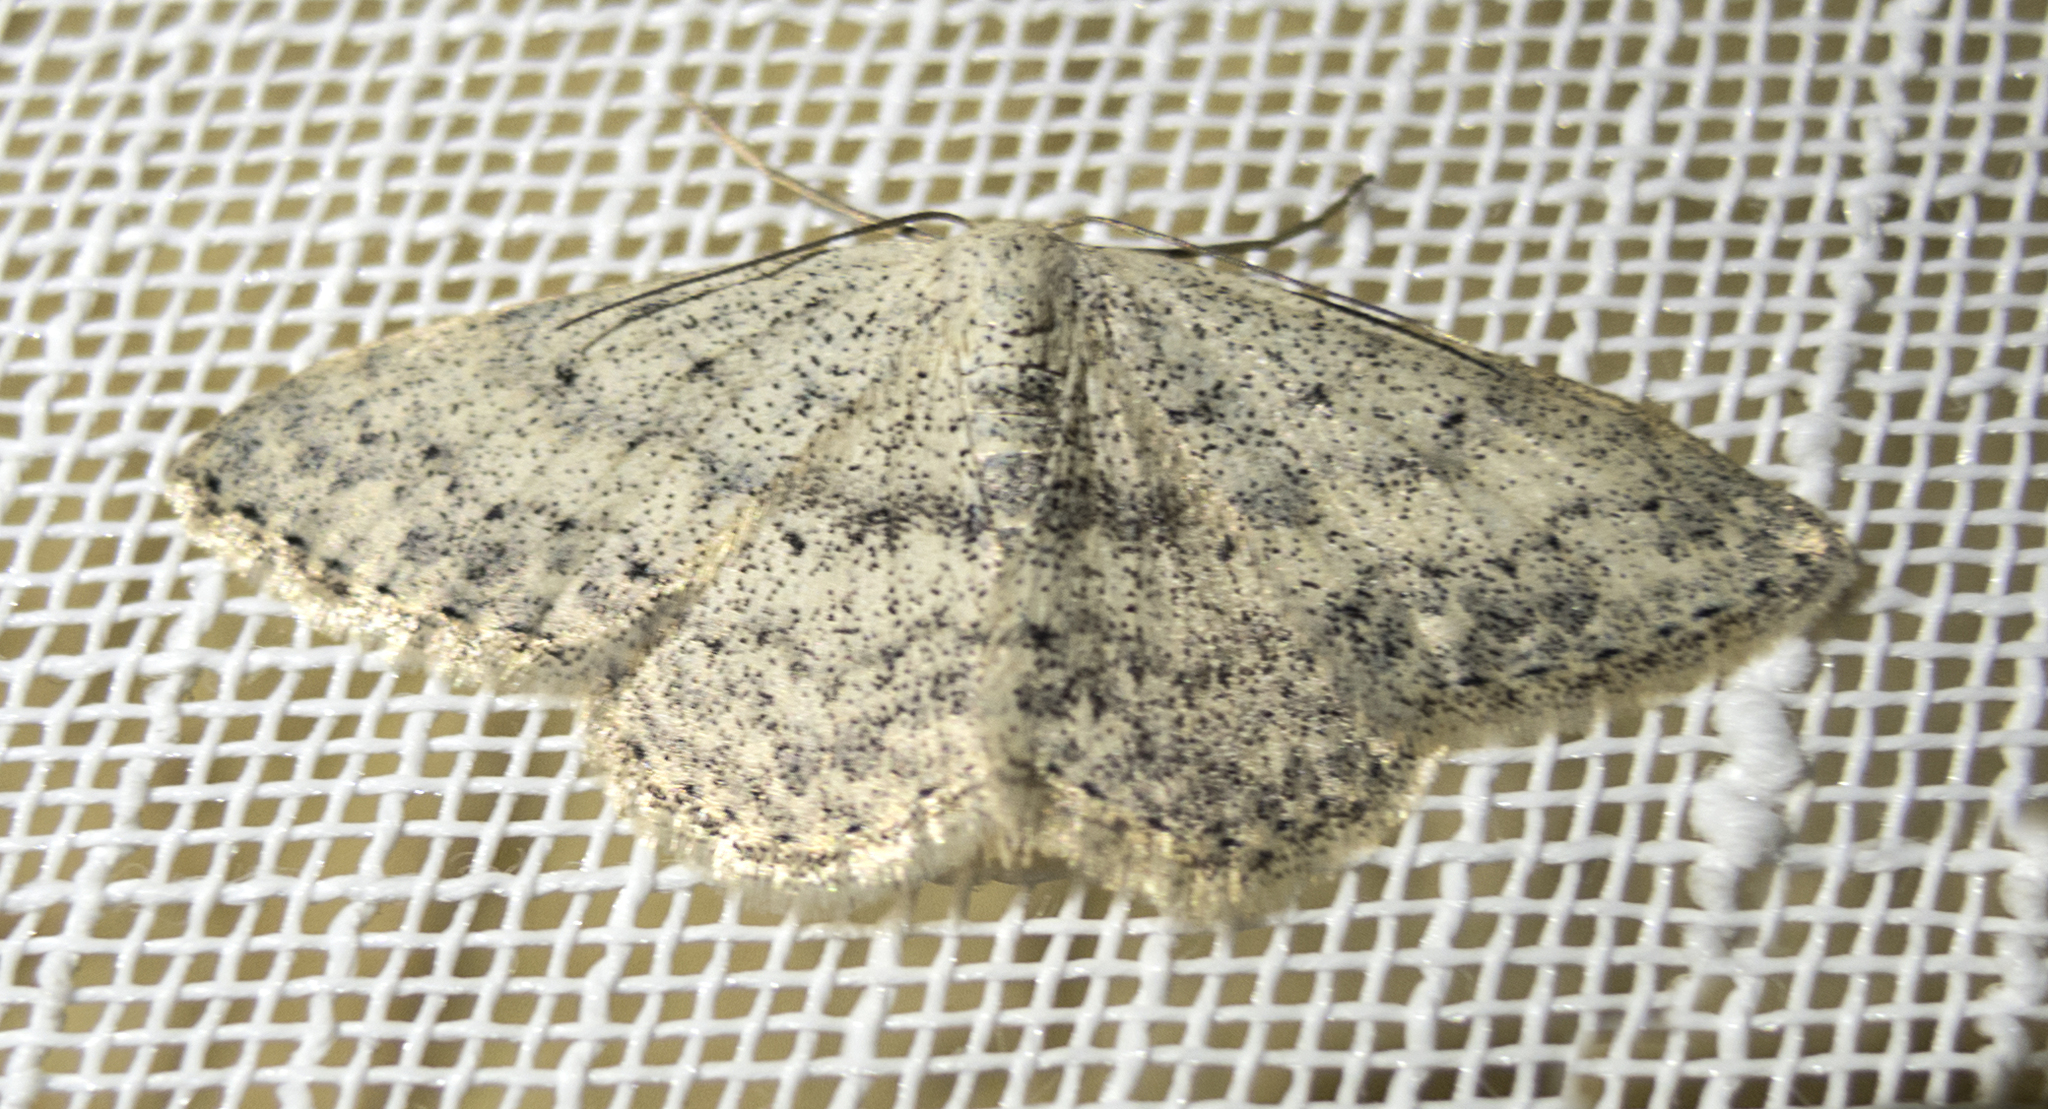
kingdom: Animalia
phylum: Arthropoda
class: Insecta
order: Lepidoptera
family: Geometridae
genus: Scopula
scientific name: Scopula marginepunctata
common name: Mullein wave
